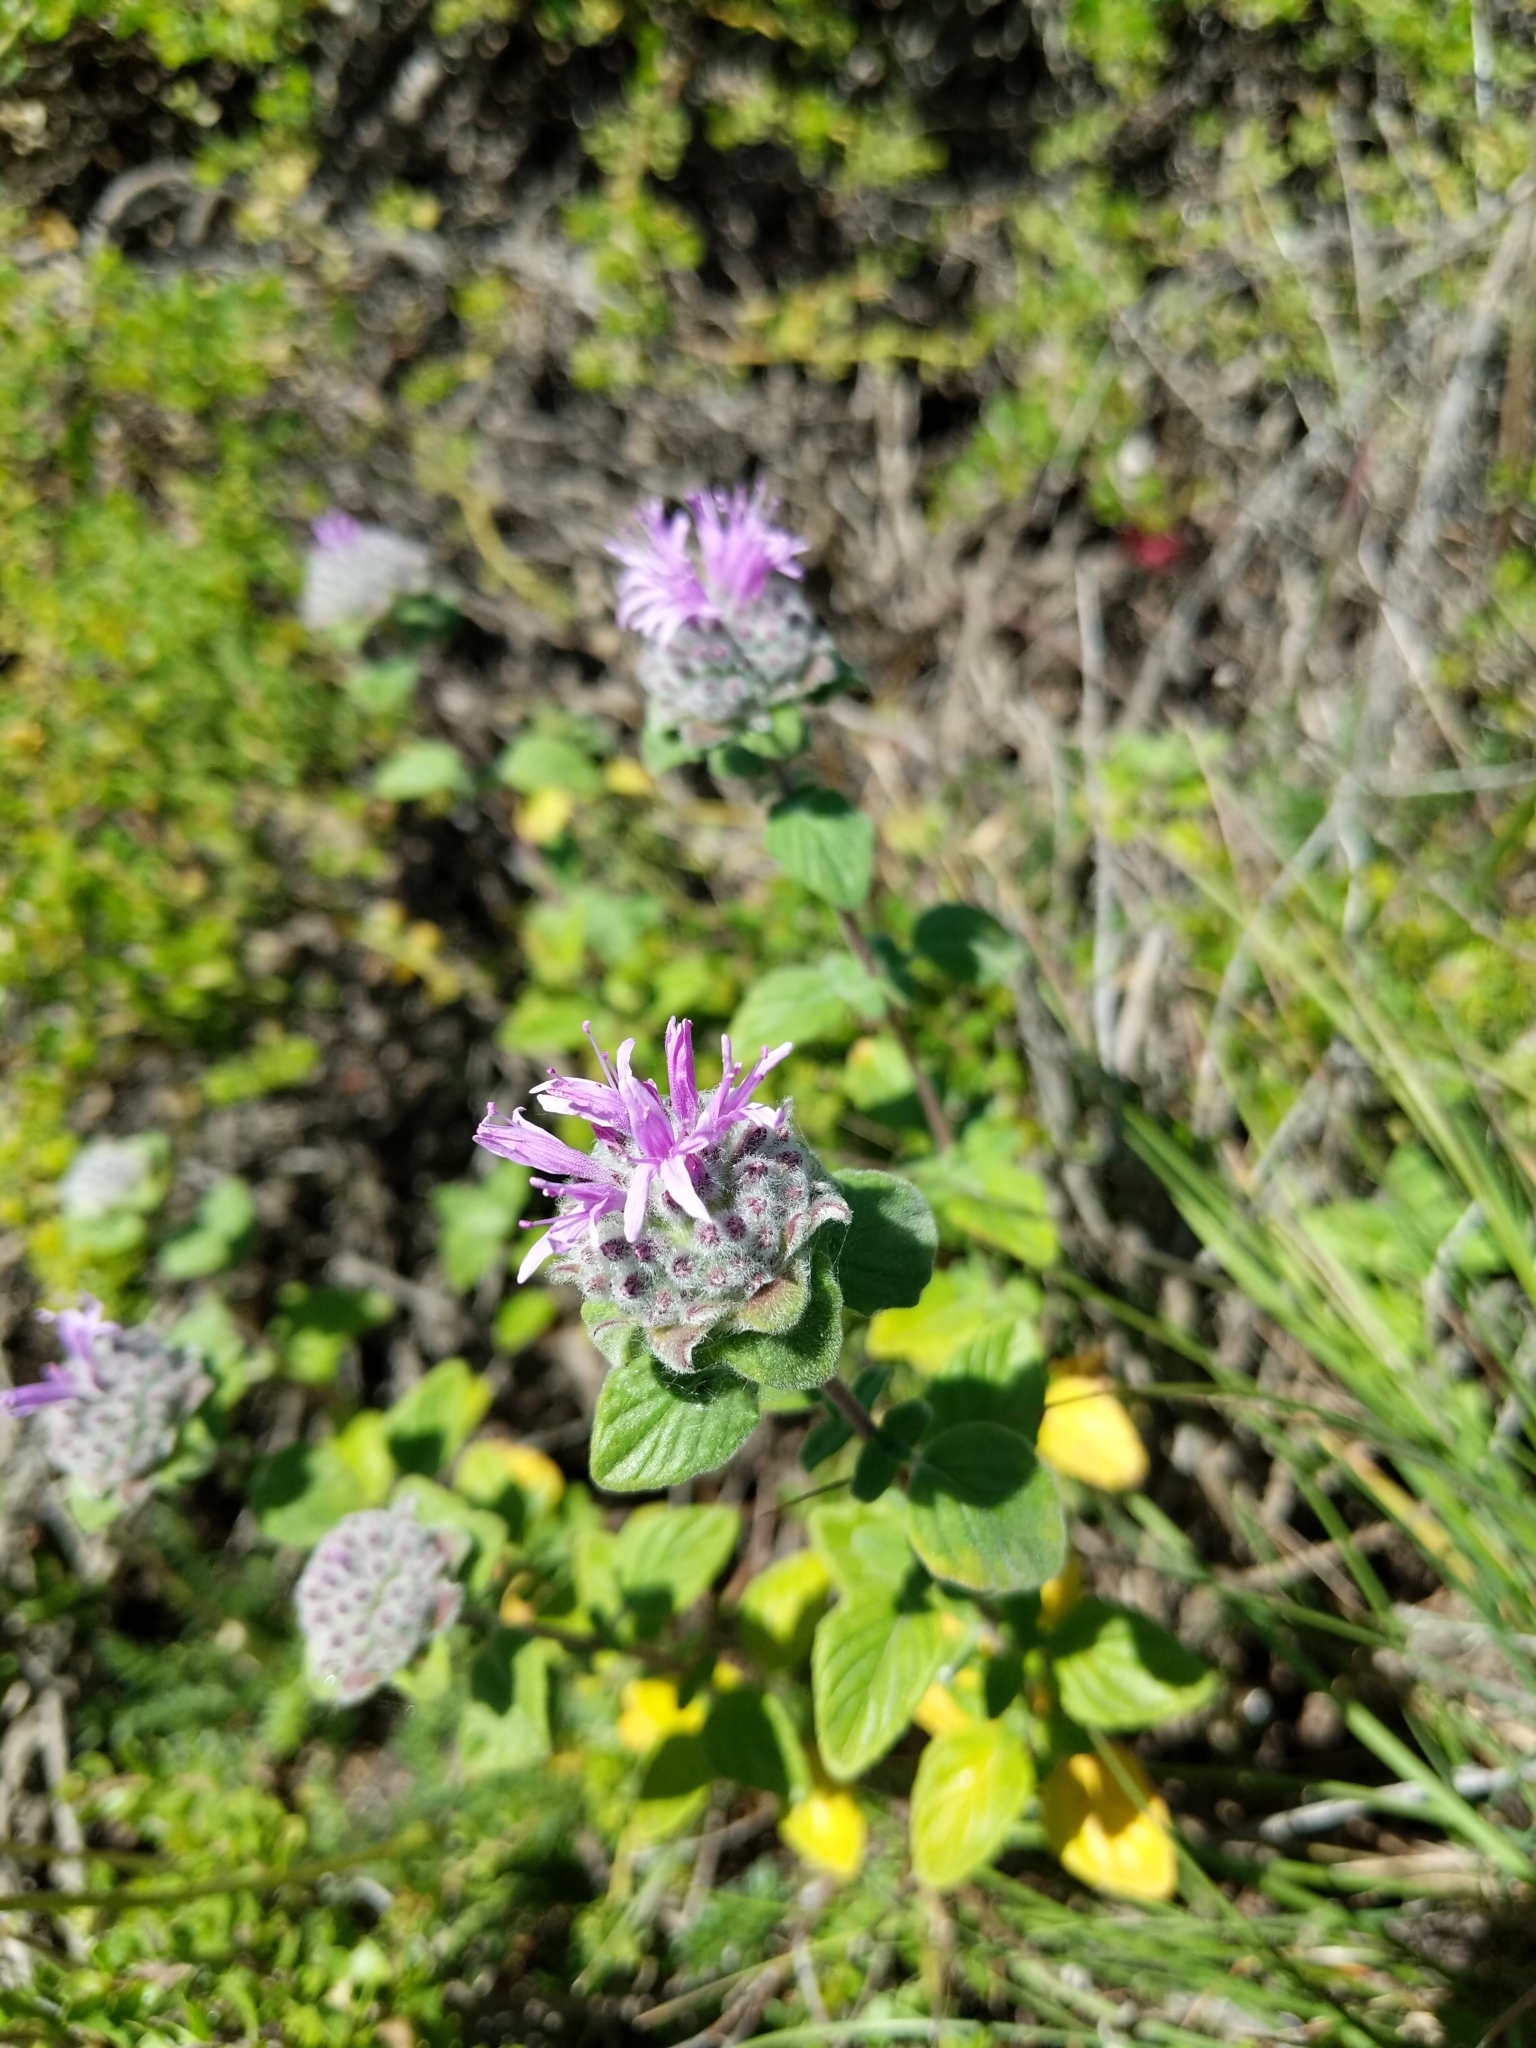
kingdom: Plantae
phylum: Tracheophyta
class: Magnoliopsida
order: Lamiales
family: Lamiaceae
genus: Monardella
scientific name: Monardella odoratissima
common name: Pacific monardella
